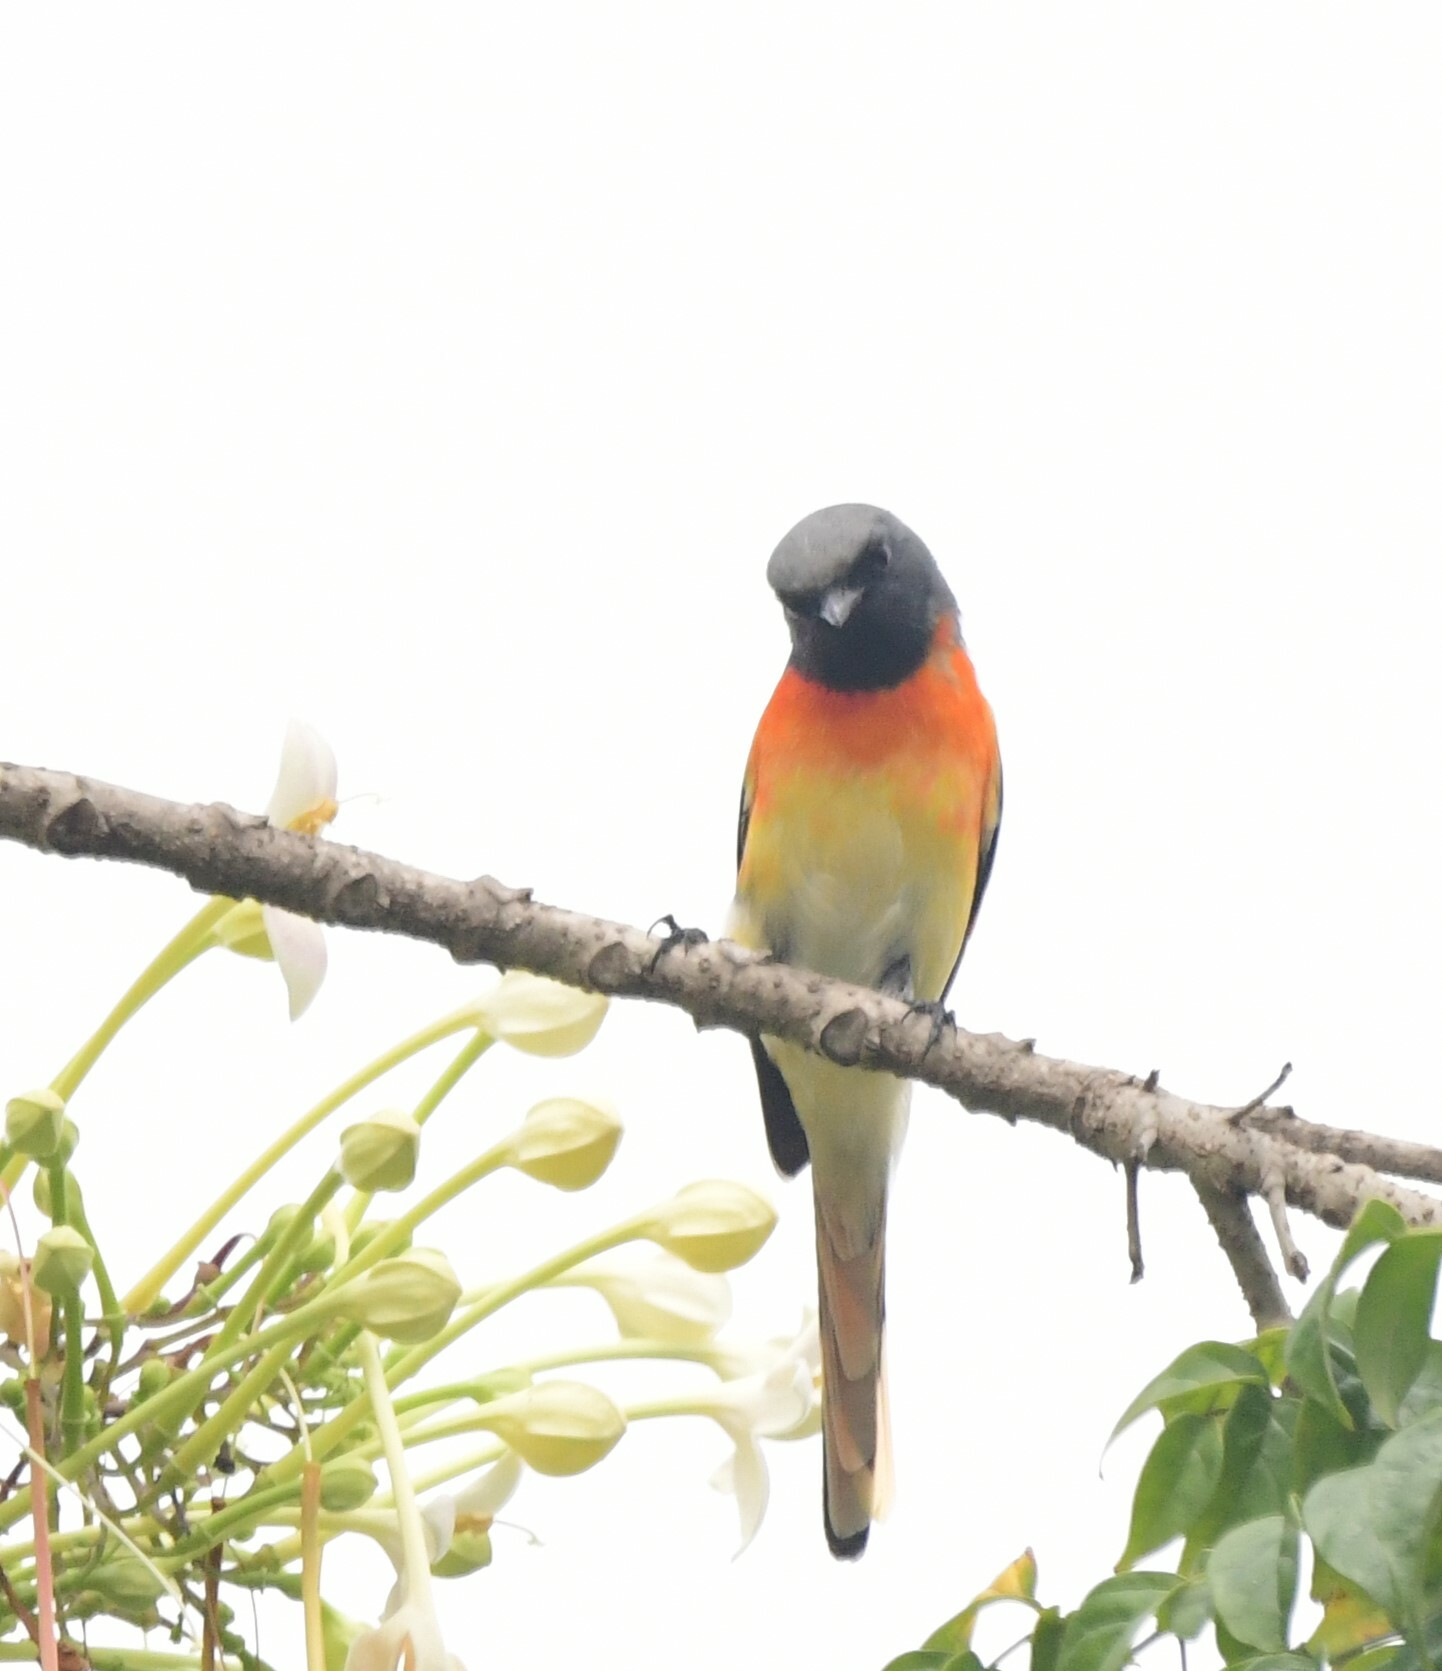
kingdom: Animalia
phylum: Chordata
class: Aves
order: Passeriformes
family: Campephagidae
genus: Pericrocotus
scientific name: Pericrocotus cinnamomeus
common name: Small minivet
